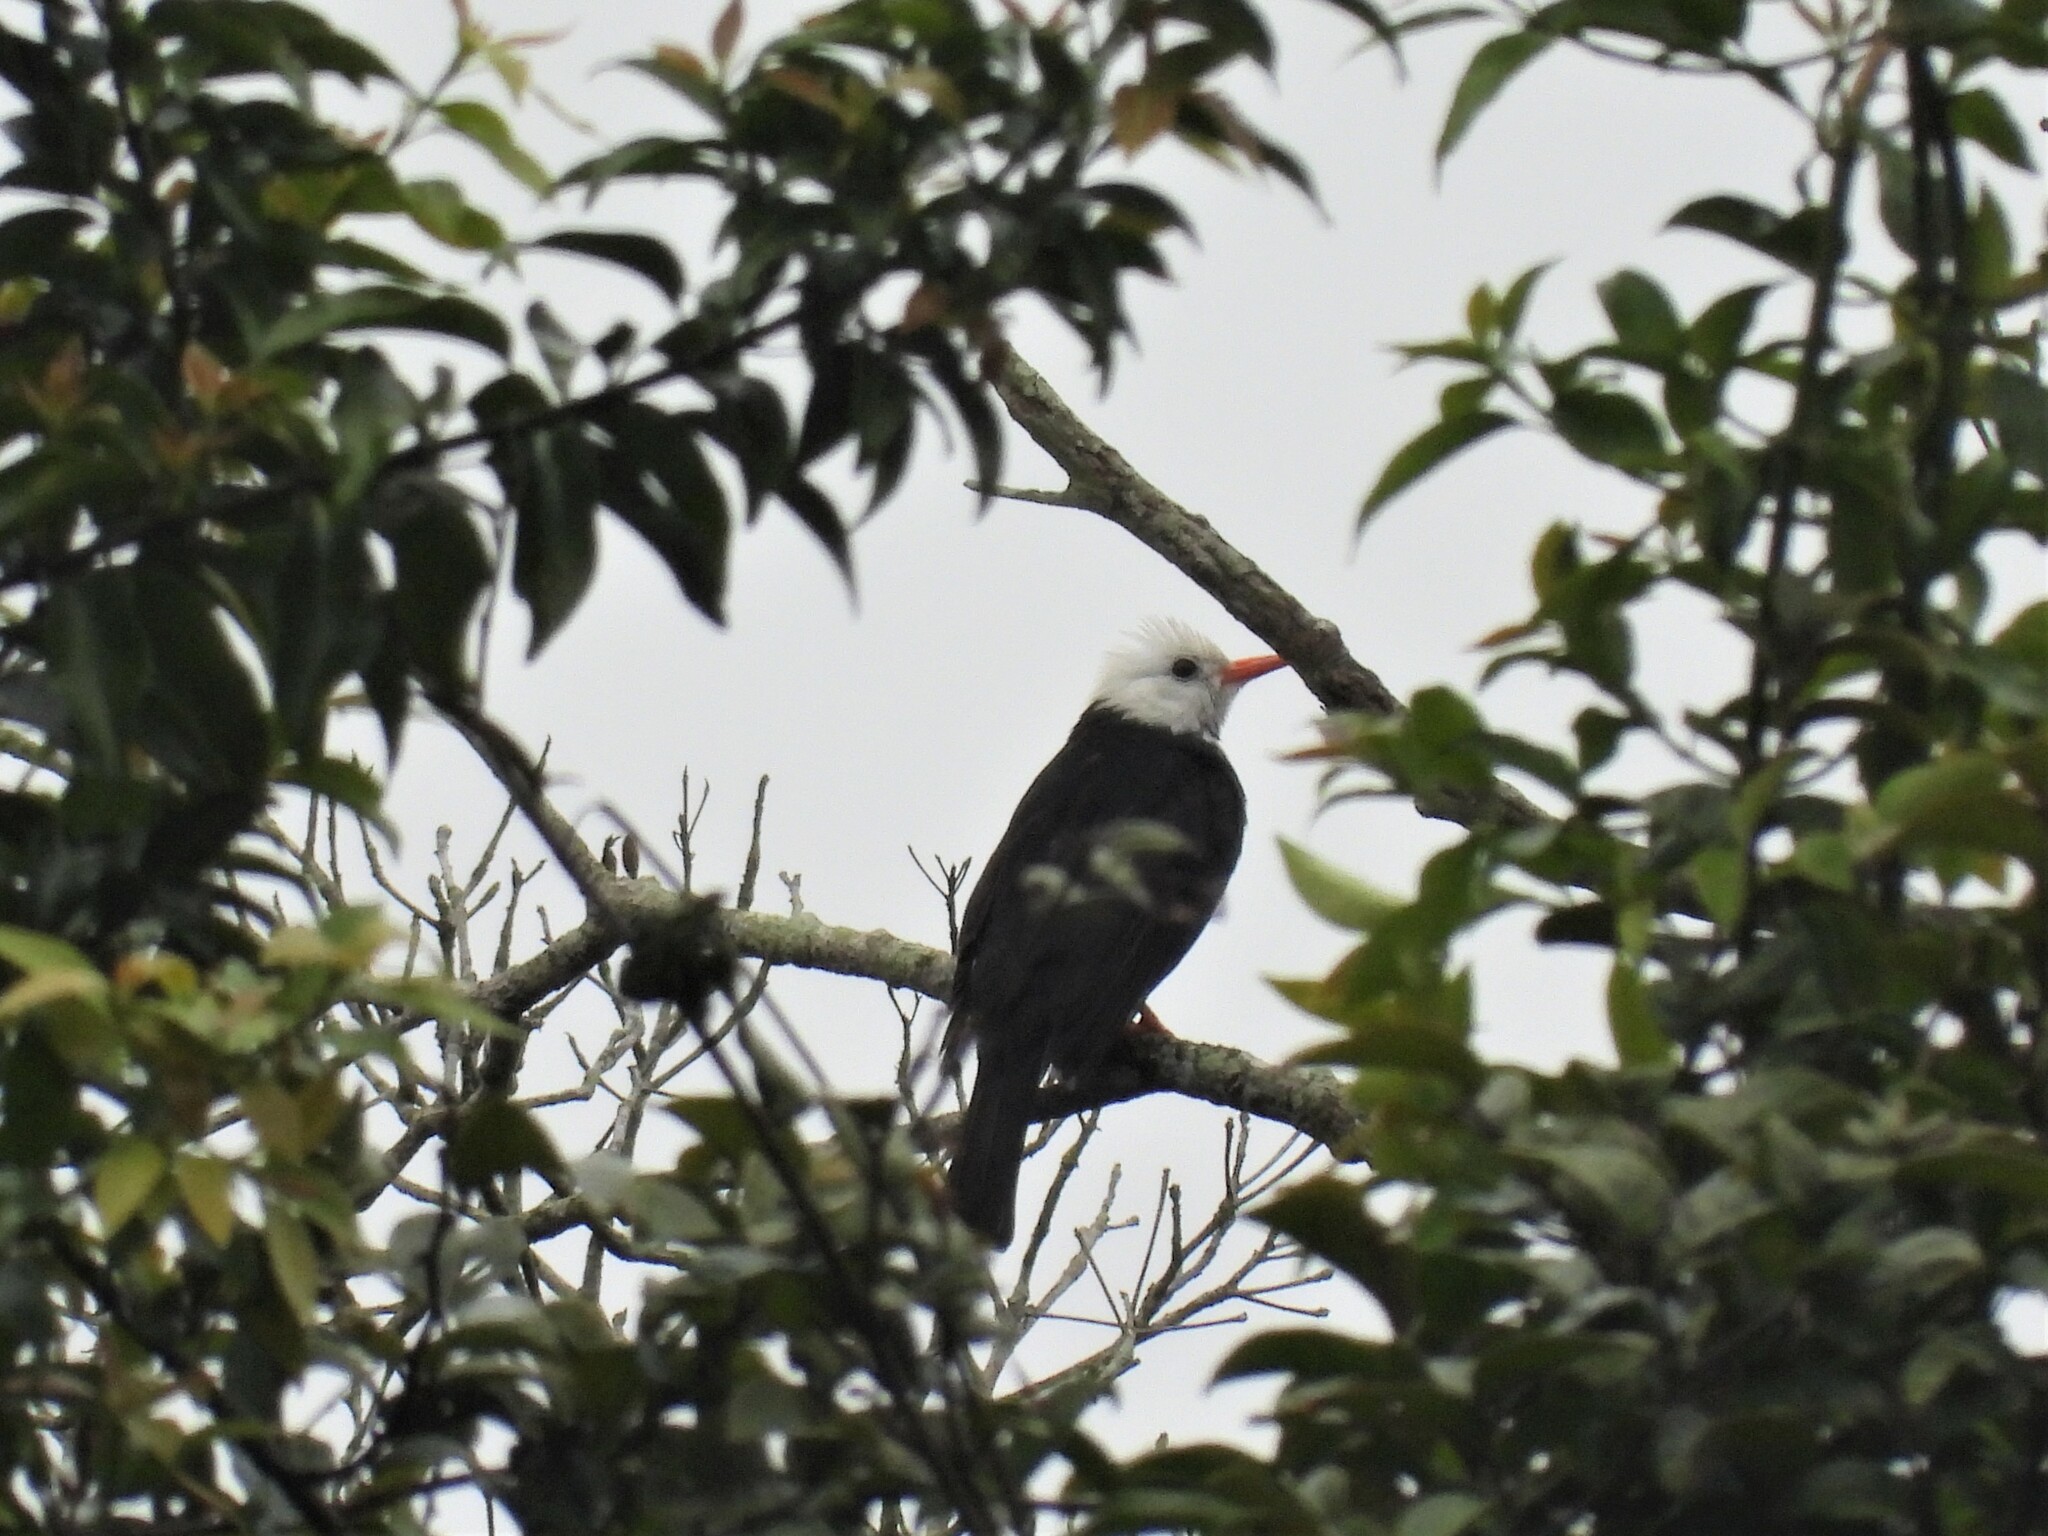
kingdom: Animalia
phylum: Chordata
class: Aves
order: Passeriformes
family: Pycnonotidae
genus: Hypsipetes
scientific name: Hypsipetes leucocephalus
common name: Black bulbul
